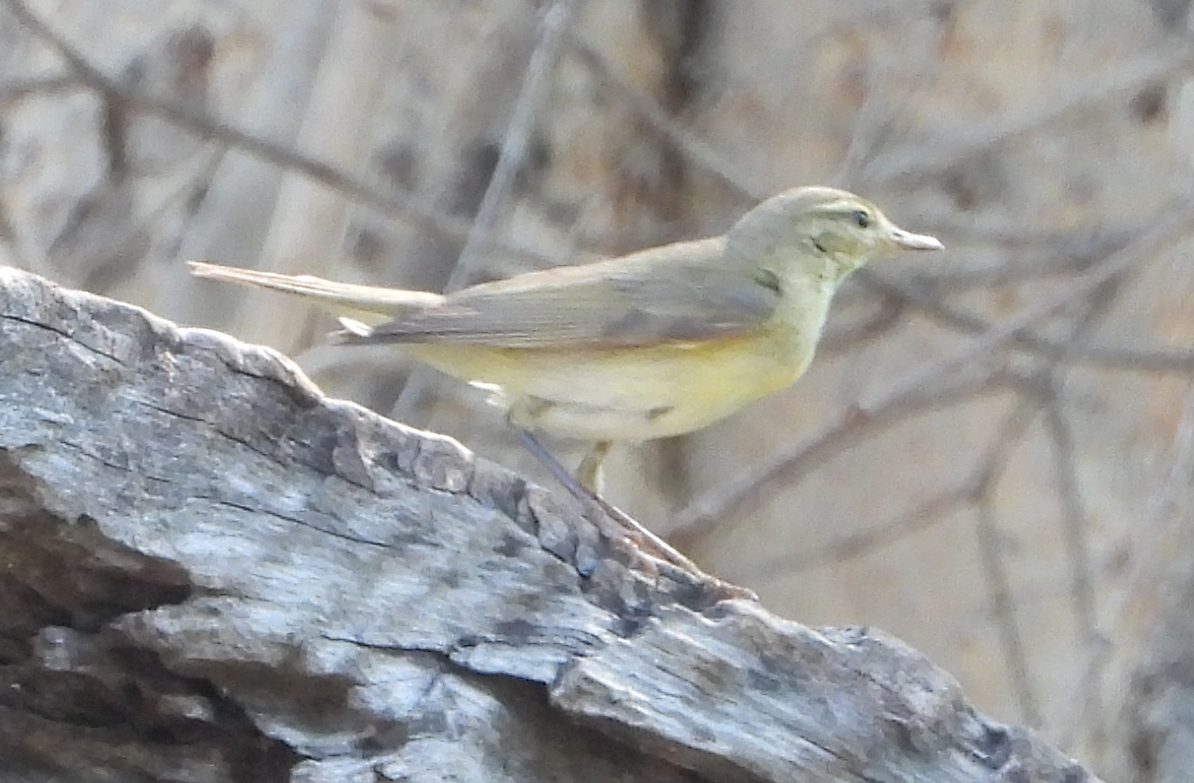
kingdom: Animalia
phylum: Chordata
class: Aves
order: Passeriformes
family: Phylloscopidae
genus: Phylloscopus
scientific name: Phylloscopus trochilus
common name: Willow warbler
